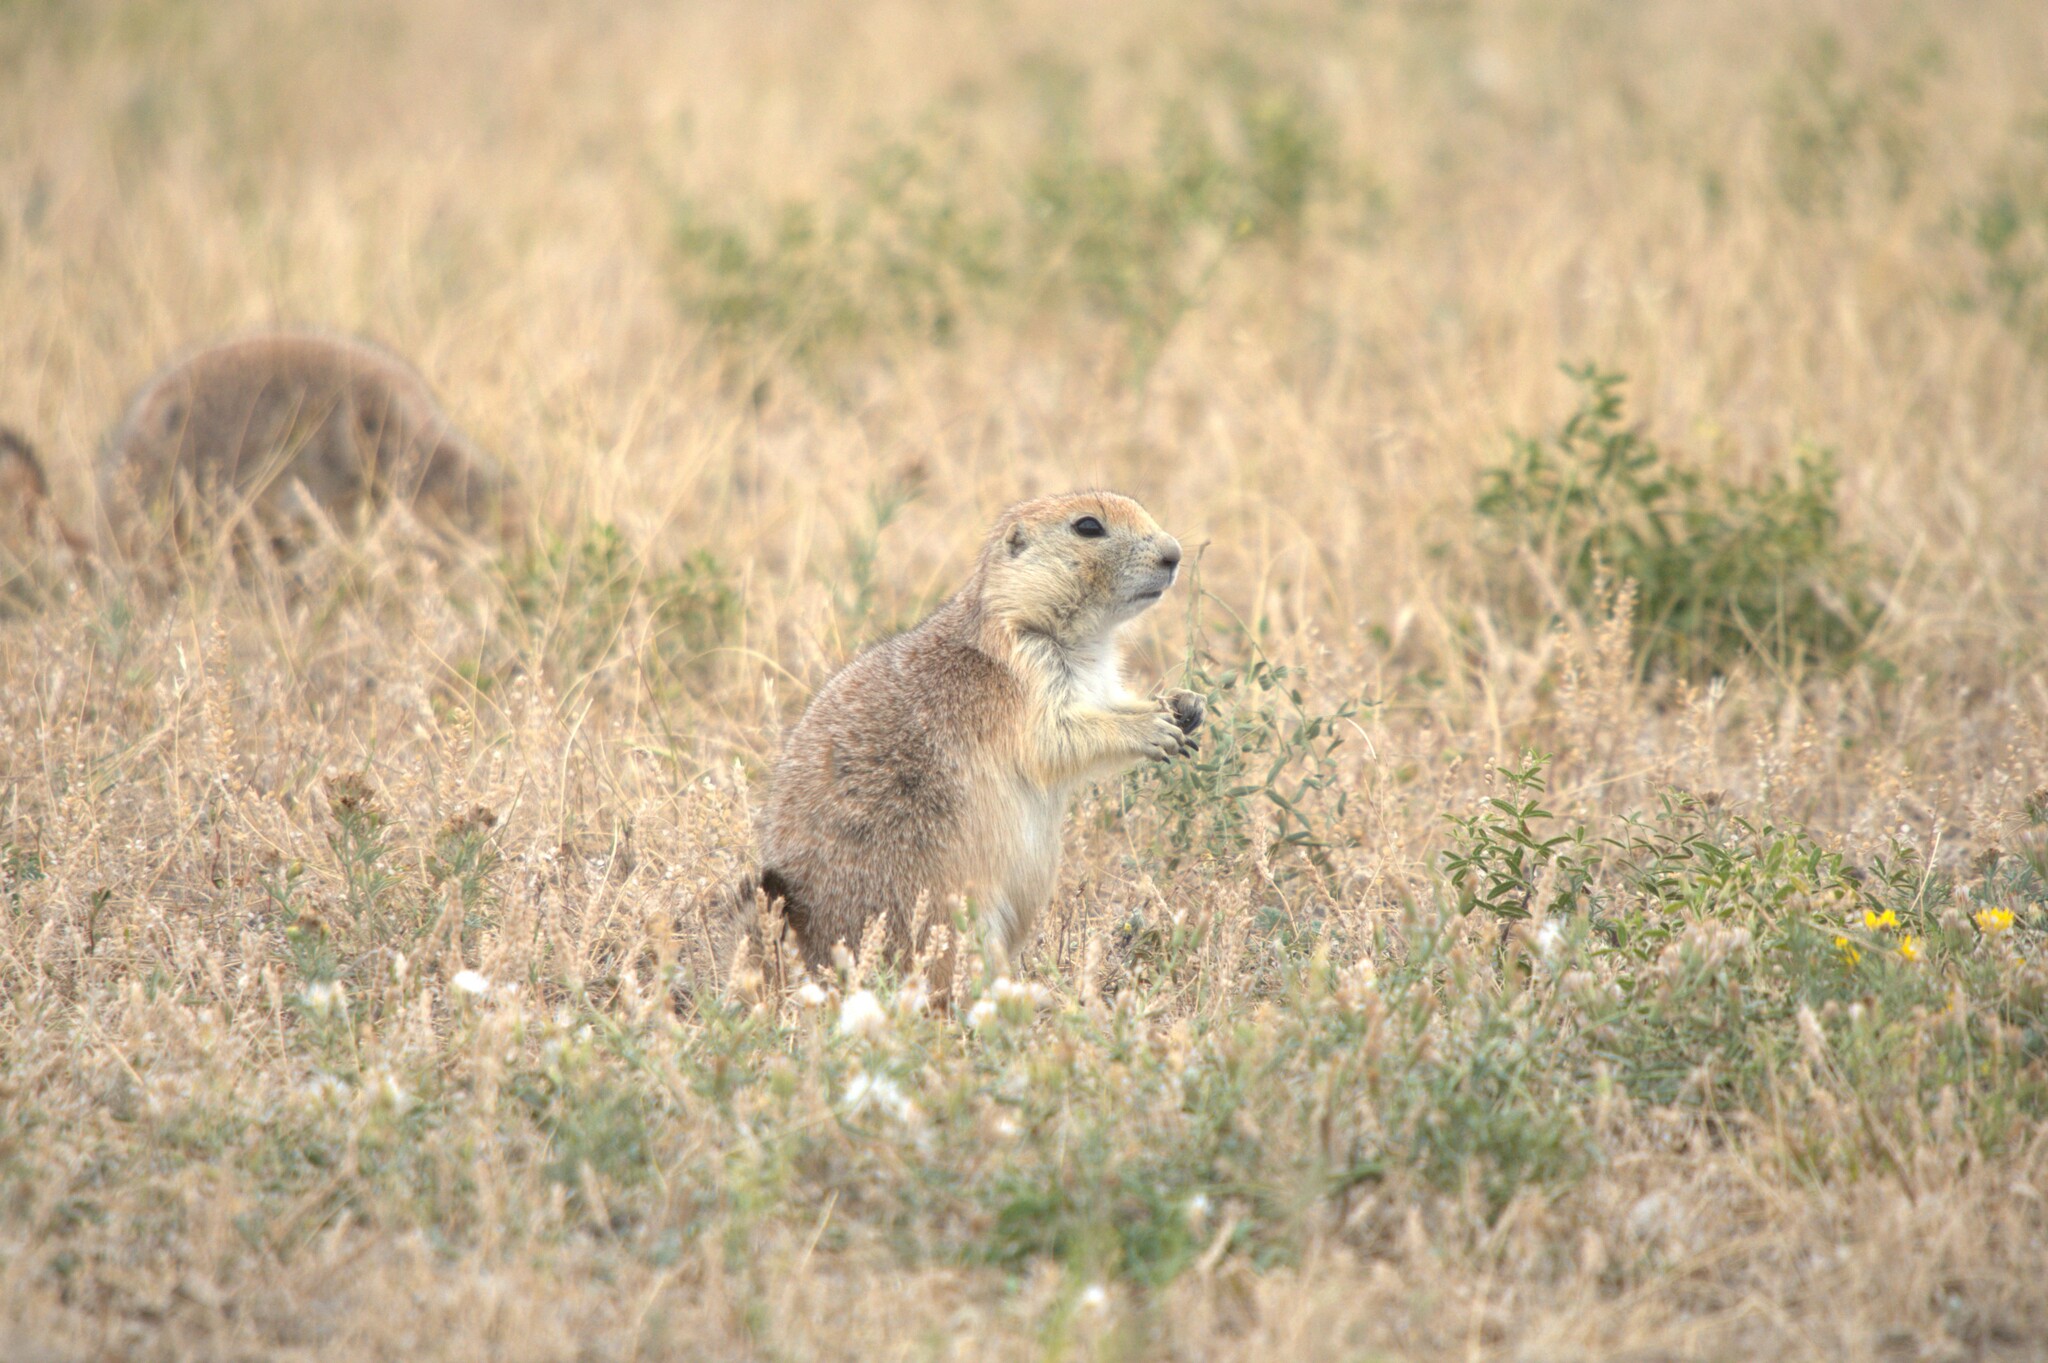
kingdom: Animalia
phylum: Chordata
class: Mammalia
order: Rodentia
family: Sciuridae
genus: Cynomys
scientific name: Cynomys ludovicianus
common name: Black-tailed prairie dog
